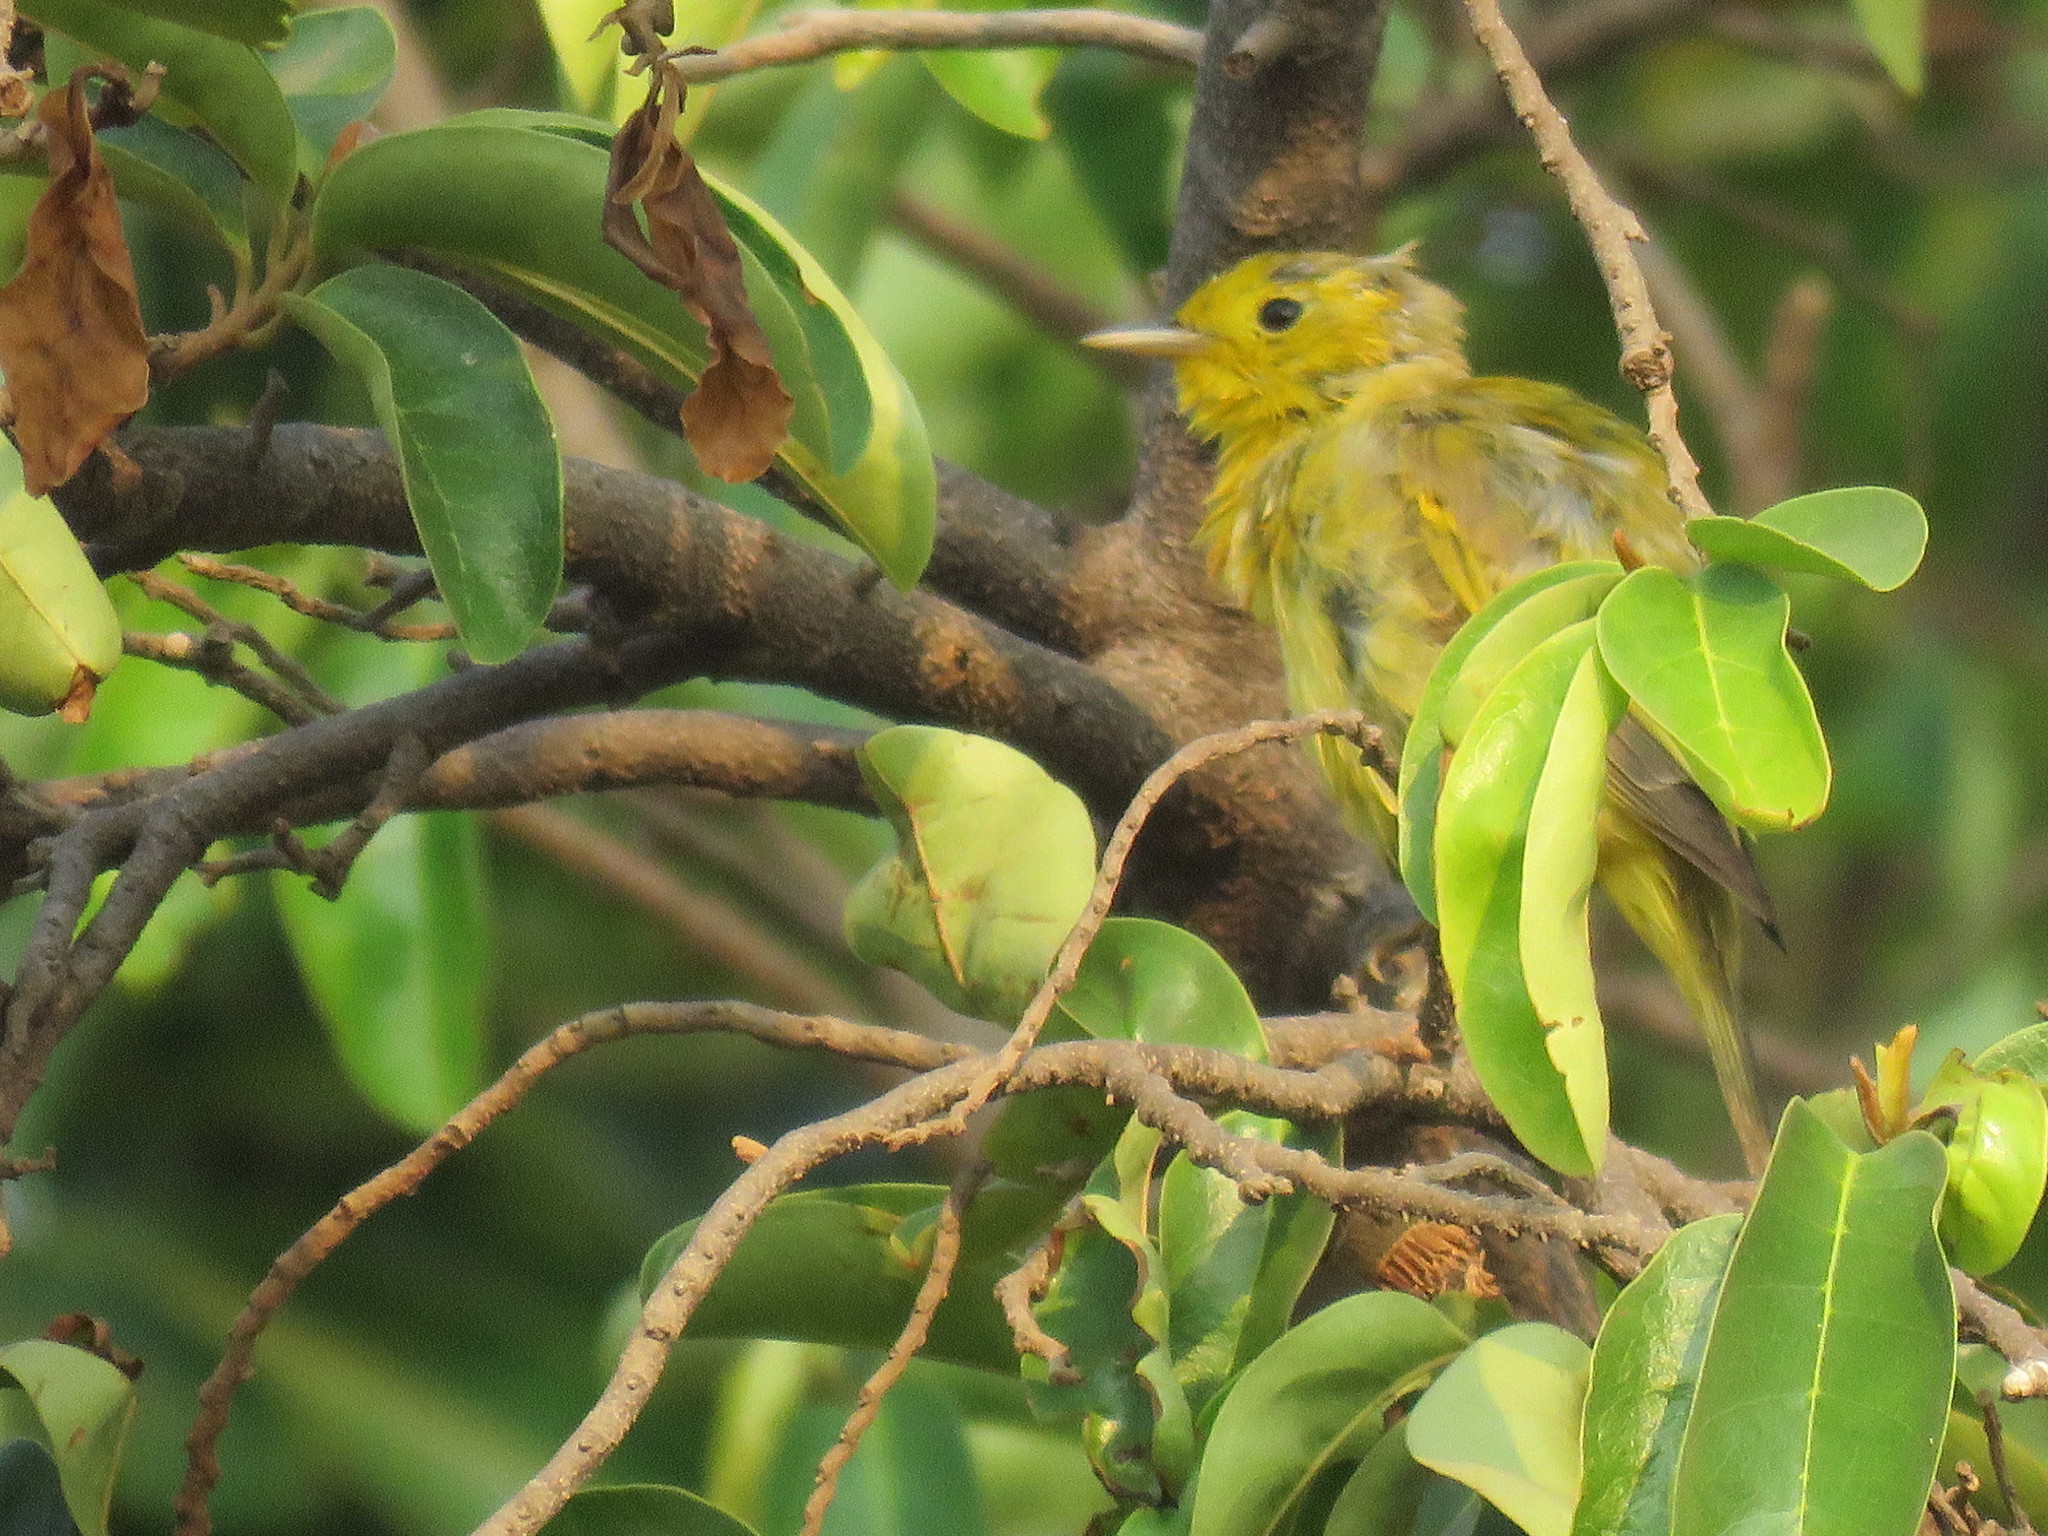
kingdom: Animalia
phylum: Chordata
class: Aves
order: Passeriformes
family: Parulidae
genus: Setophaga
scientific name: Setophaga petechia
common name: Yellow warbler
